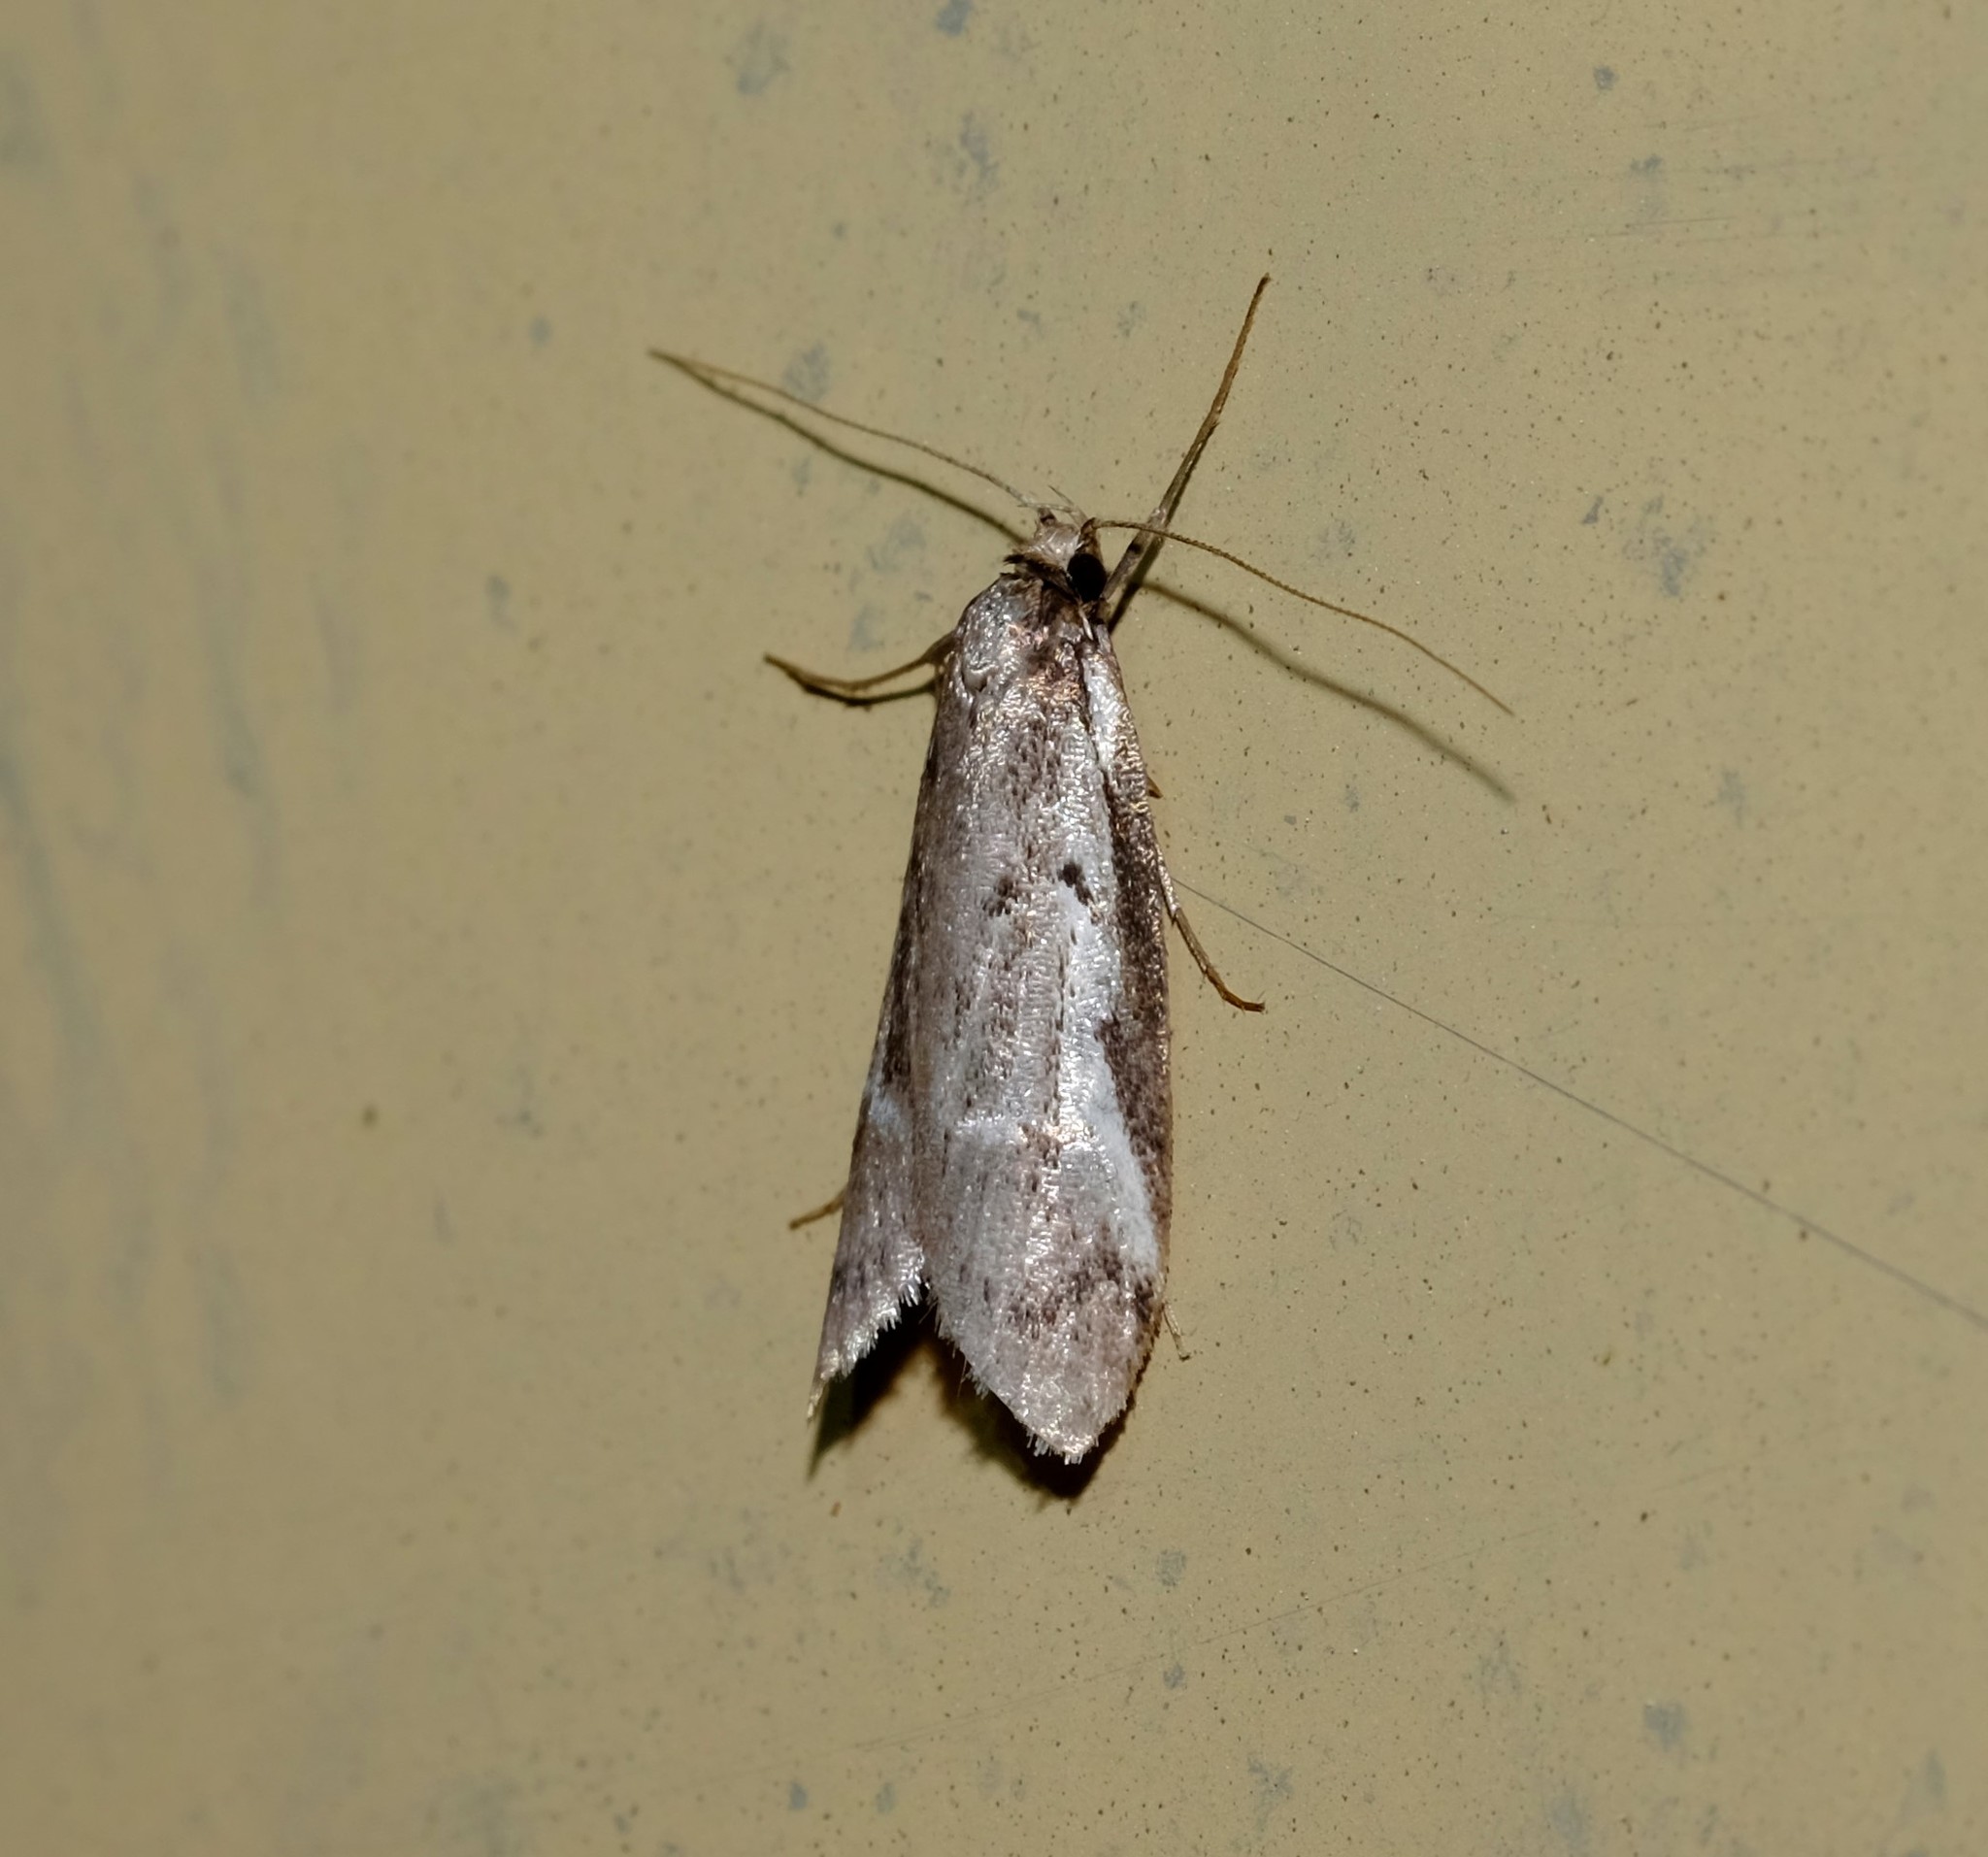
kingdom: Animalia
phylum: Arthropoda
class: Insecta
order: Lepidoptera
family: Oecophoridae
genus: Philobota
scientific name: Philobota stella
